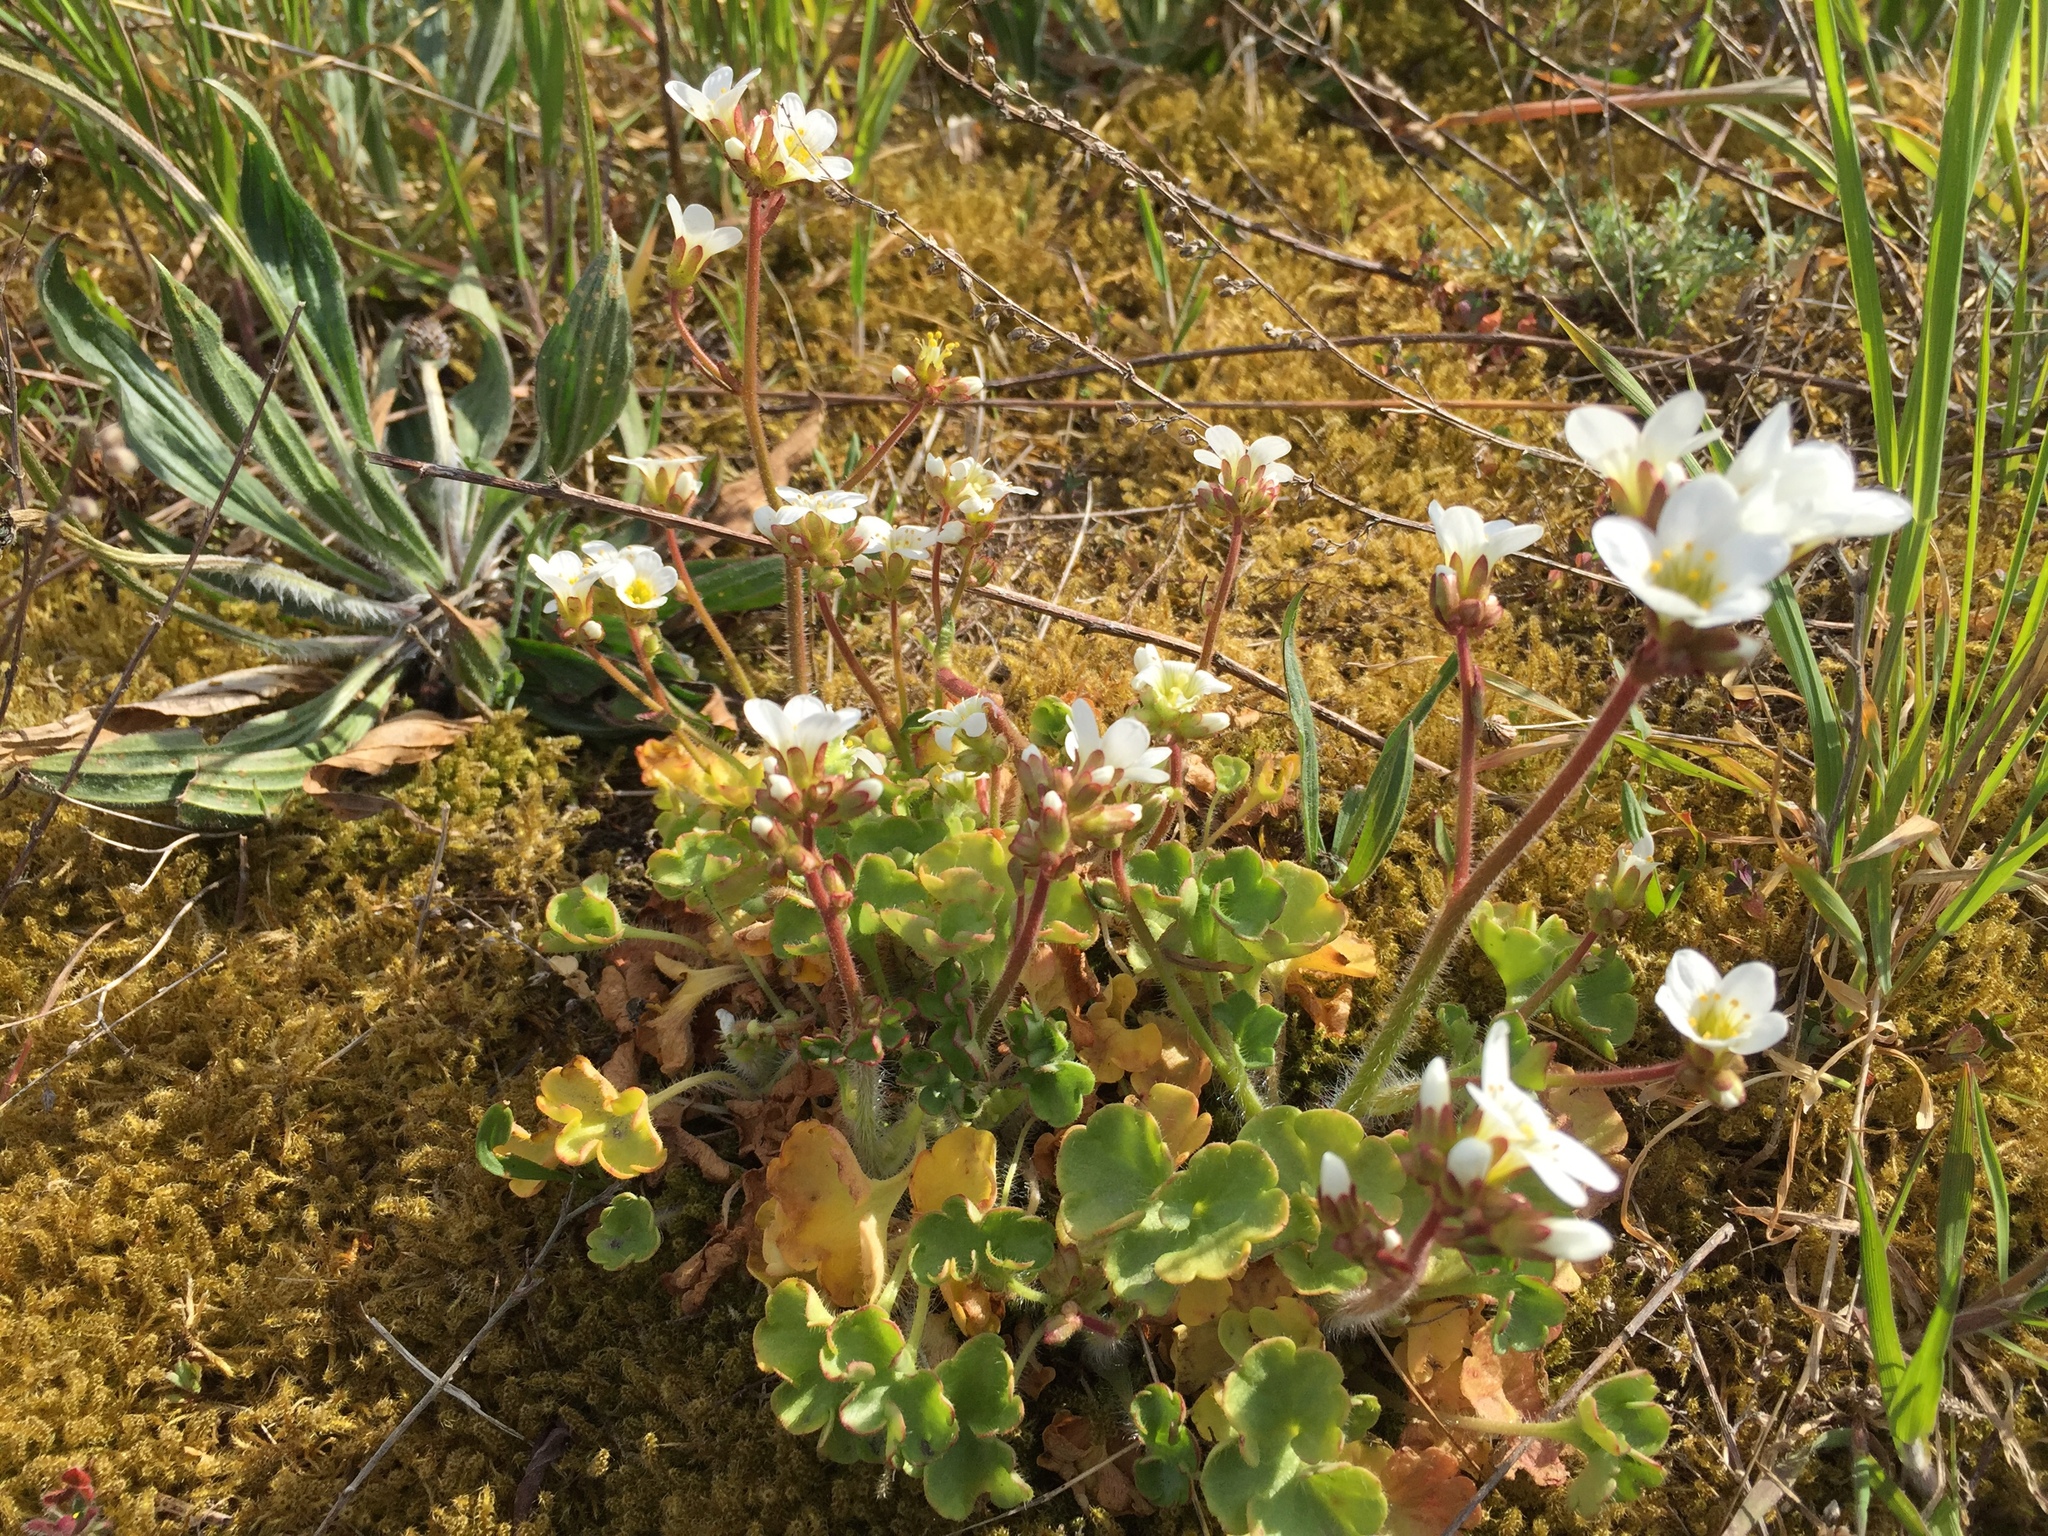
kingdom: Plantae
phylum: Tracheophyta
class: Magnoliopsida
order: Saxifragales
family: Saxifragaceae
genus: Saxifraga
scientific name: Saxifraga granulata
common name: Meadow saxifrage
